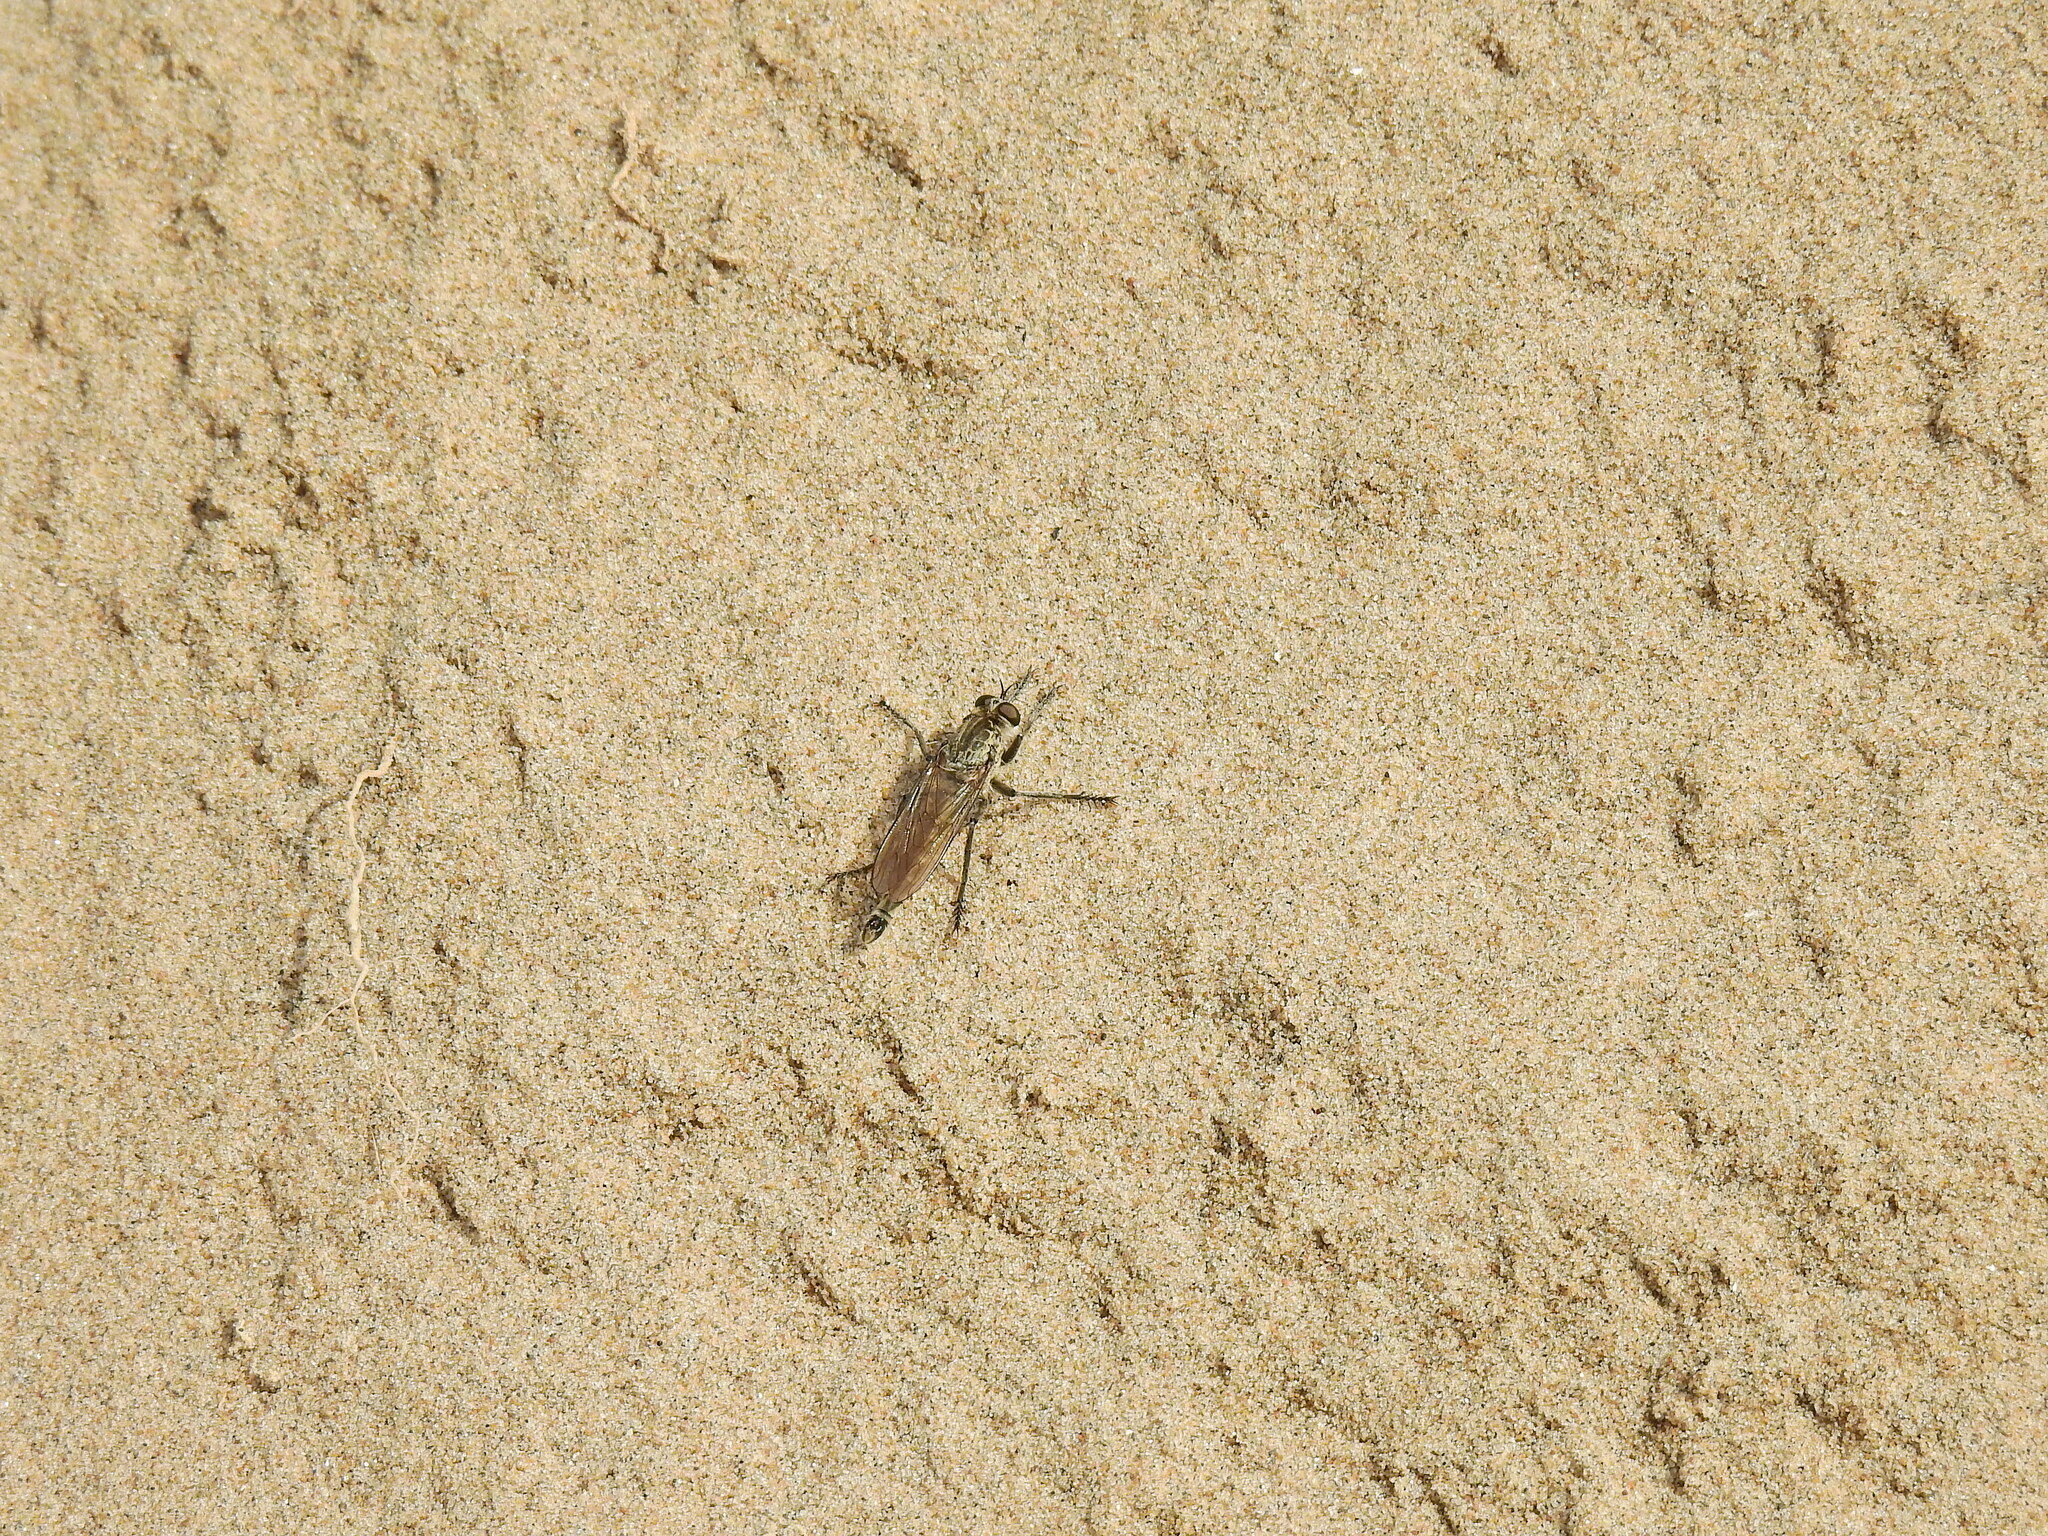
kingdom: Animalia
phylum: Arthropoda
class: Insecta
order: Diptera
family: Asilidae
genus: Philonicus
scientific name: Philonicus albiceps
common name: Dune robberfly
